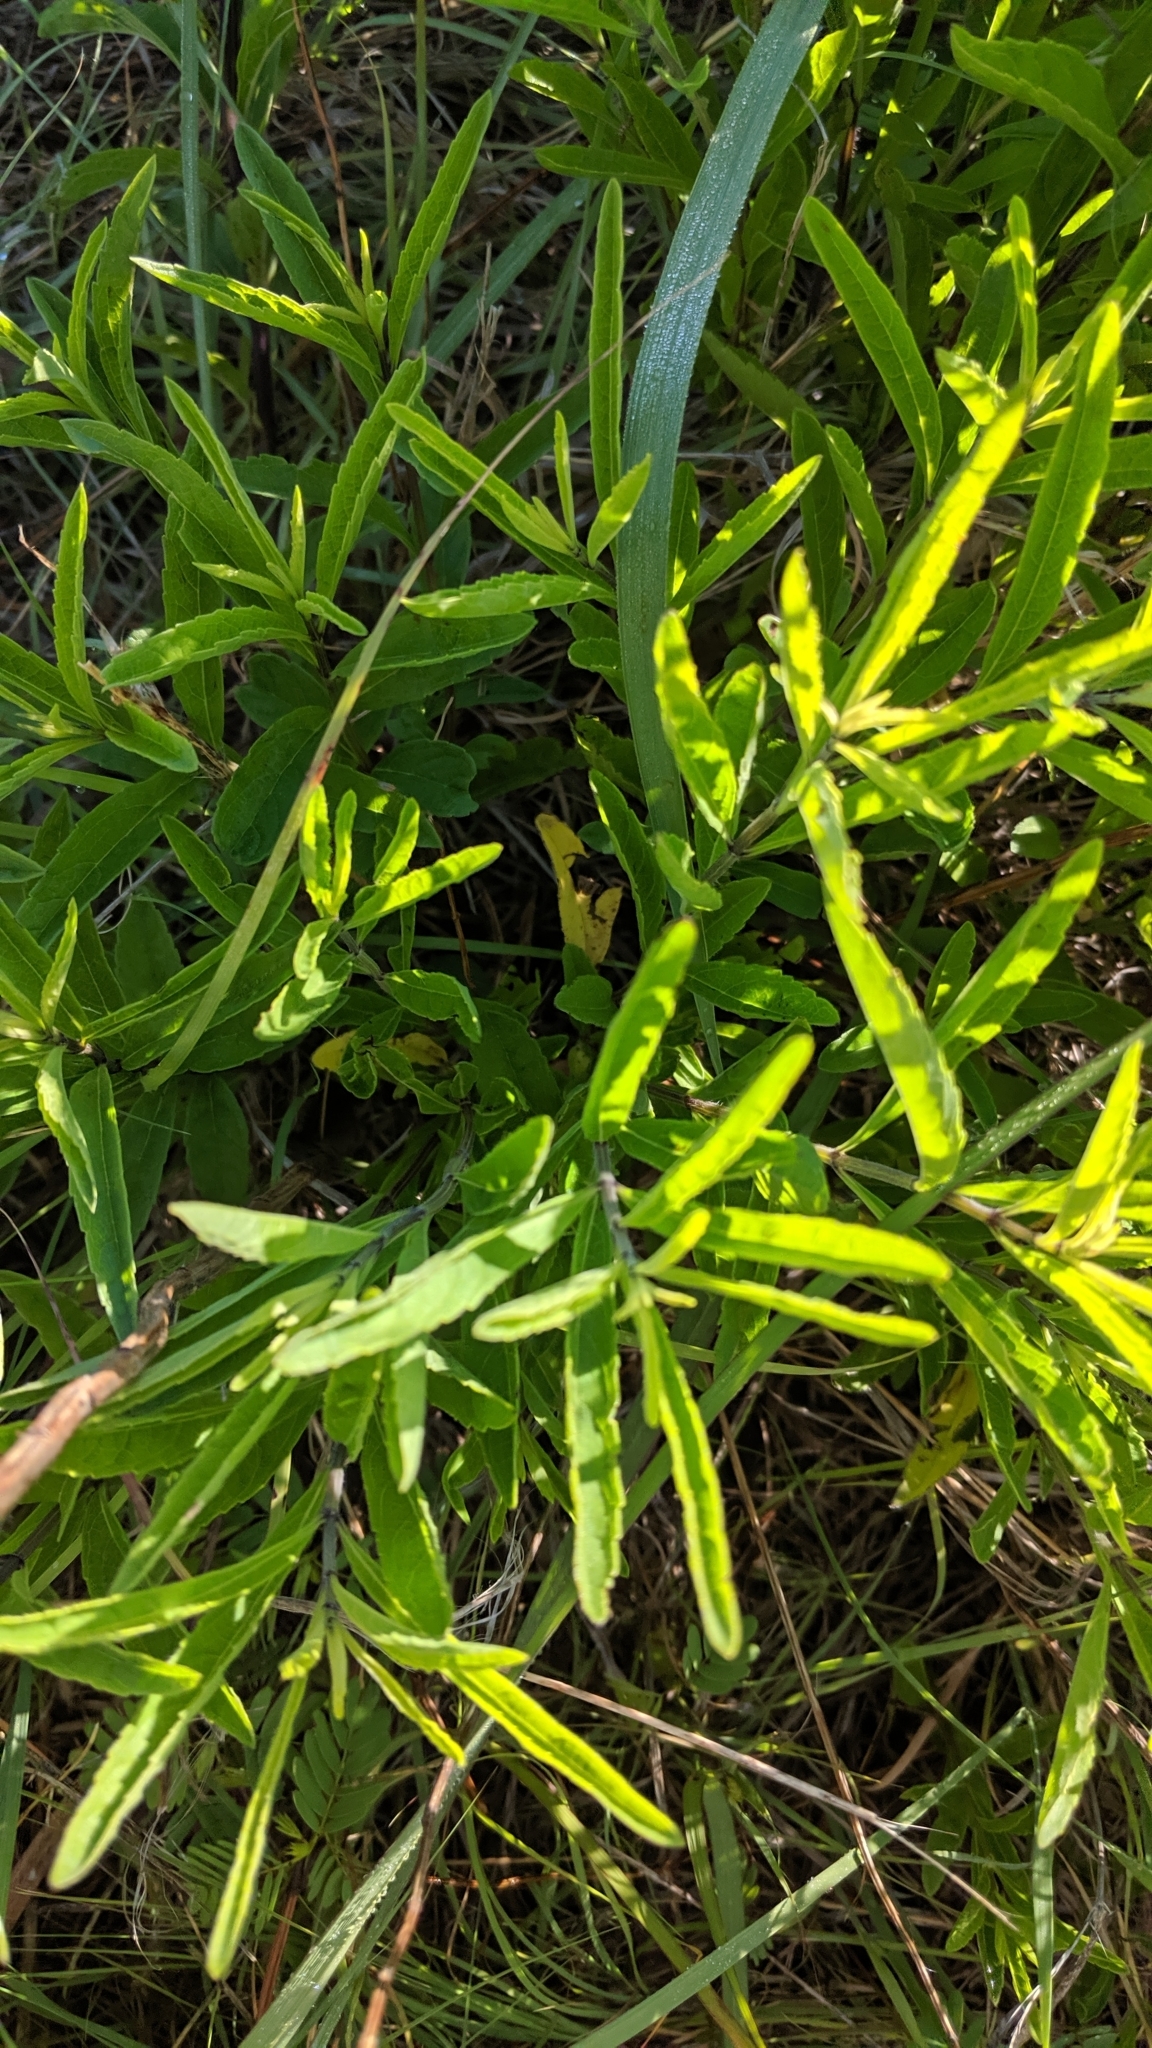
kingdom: Plantae
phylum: Tracheophyta
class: Magnoliopsida
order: Lamiales
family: Lamiaceae
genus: Salvia
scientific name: Salvia azurea
